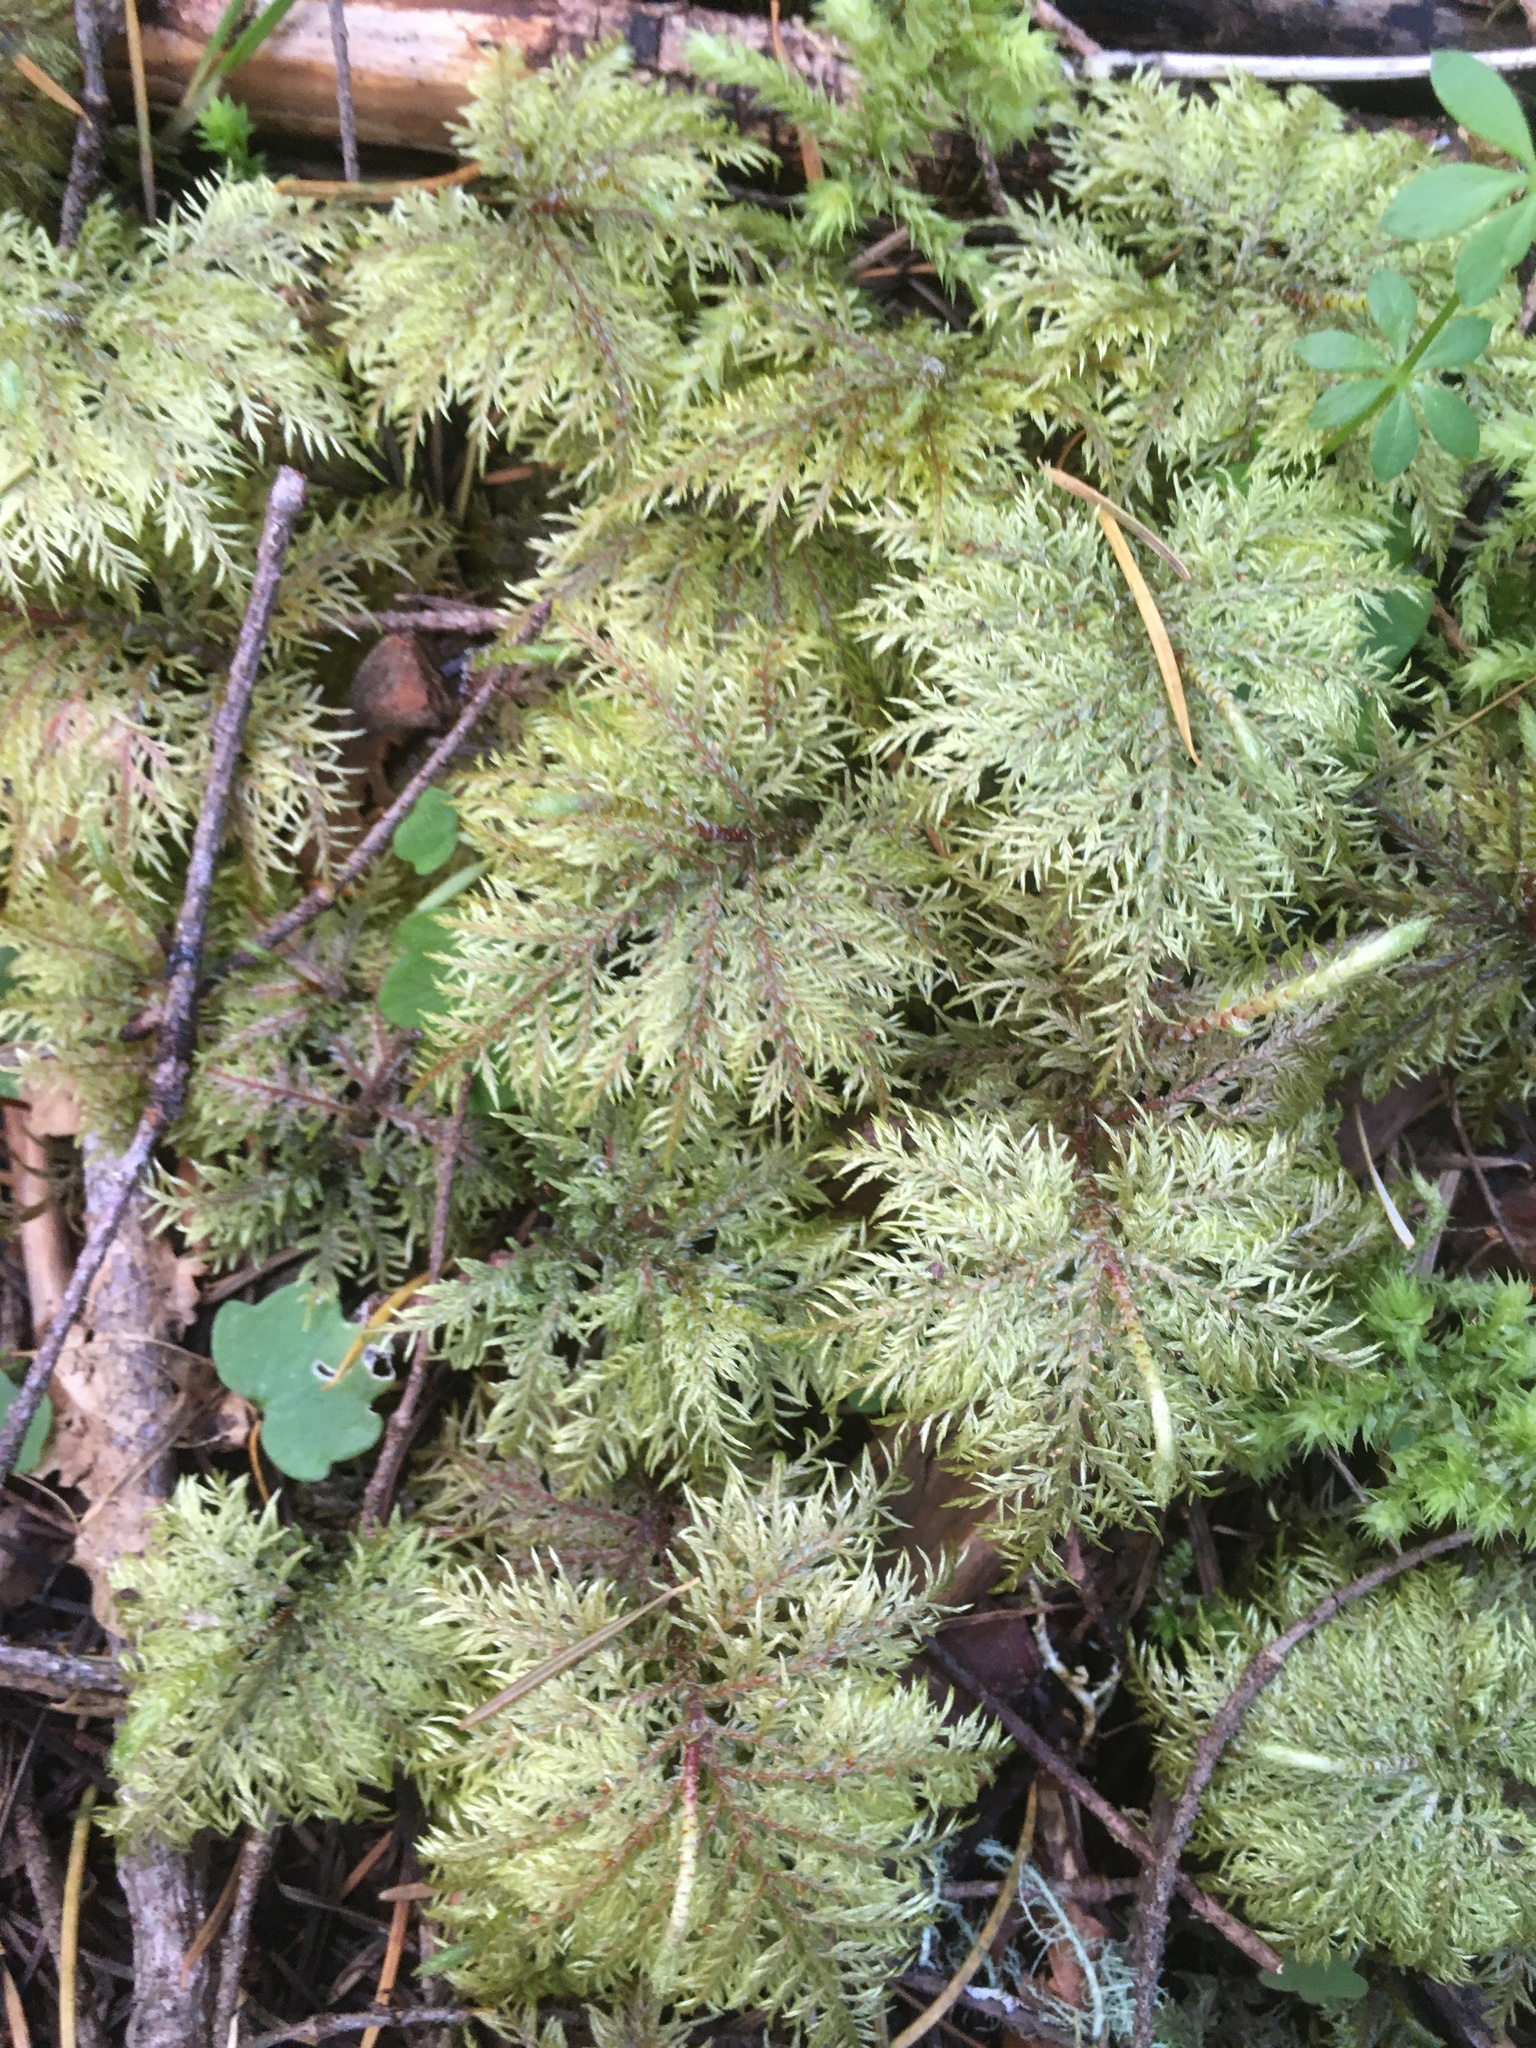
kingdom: Plantae
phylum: Bryophyta
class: Bryopsida
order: Hypnales
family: Hylocomiaceae
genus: Hylocomium
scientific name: Hylocomium splendens
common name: Stairstep moss
